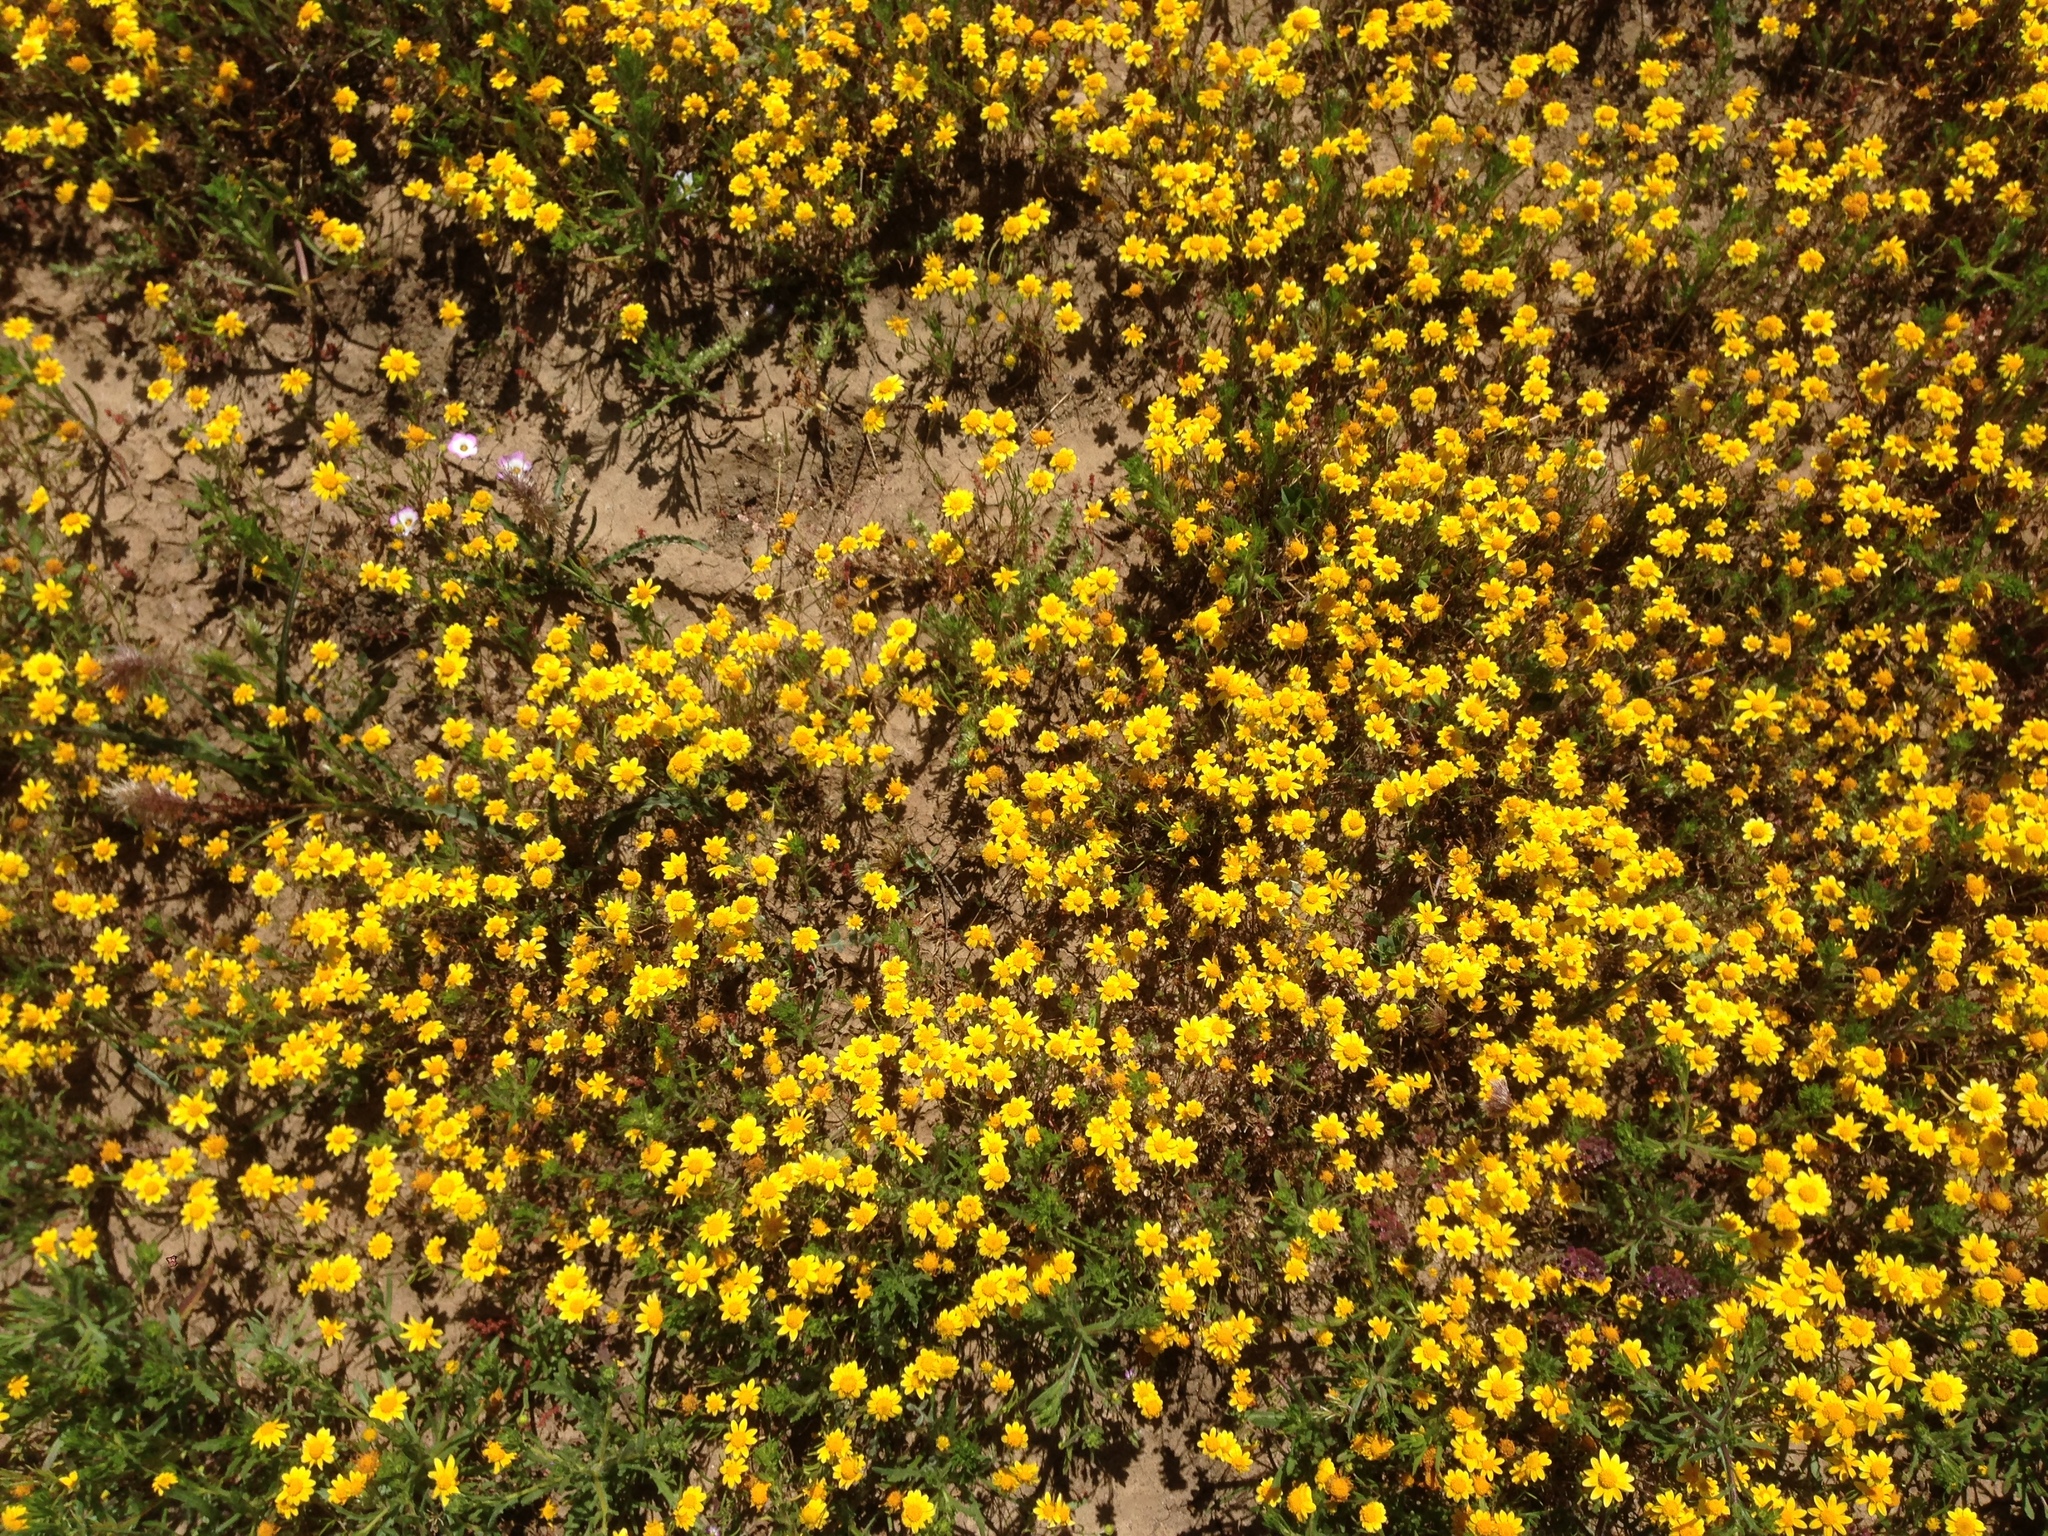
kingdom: Plantae
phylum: Tracheophyta
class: Magnoliopsida
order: Asterales
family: Asteraceae
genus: Lasthenia
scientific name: Lasthenia gracilis
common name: Common goldfields
